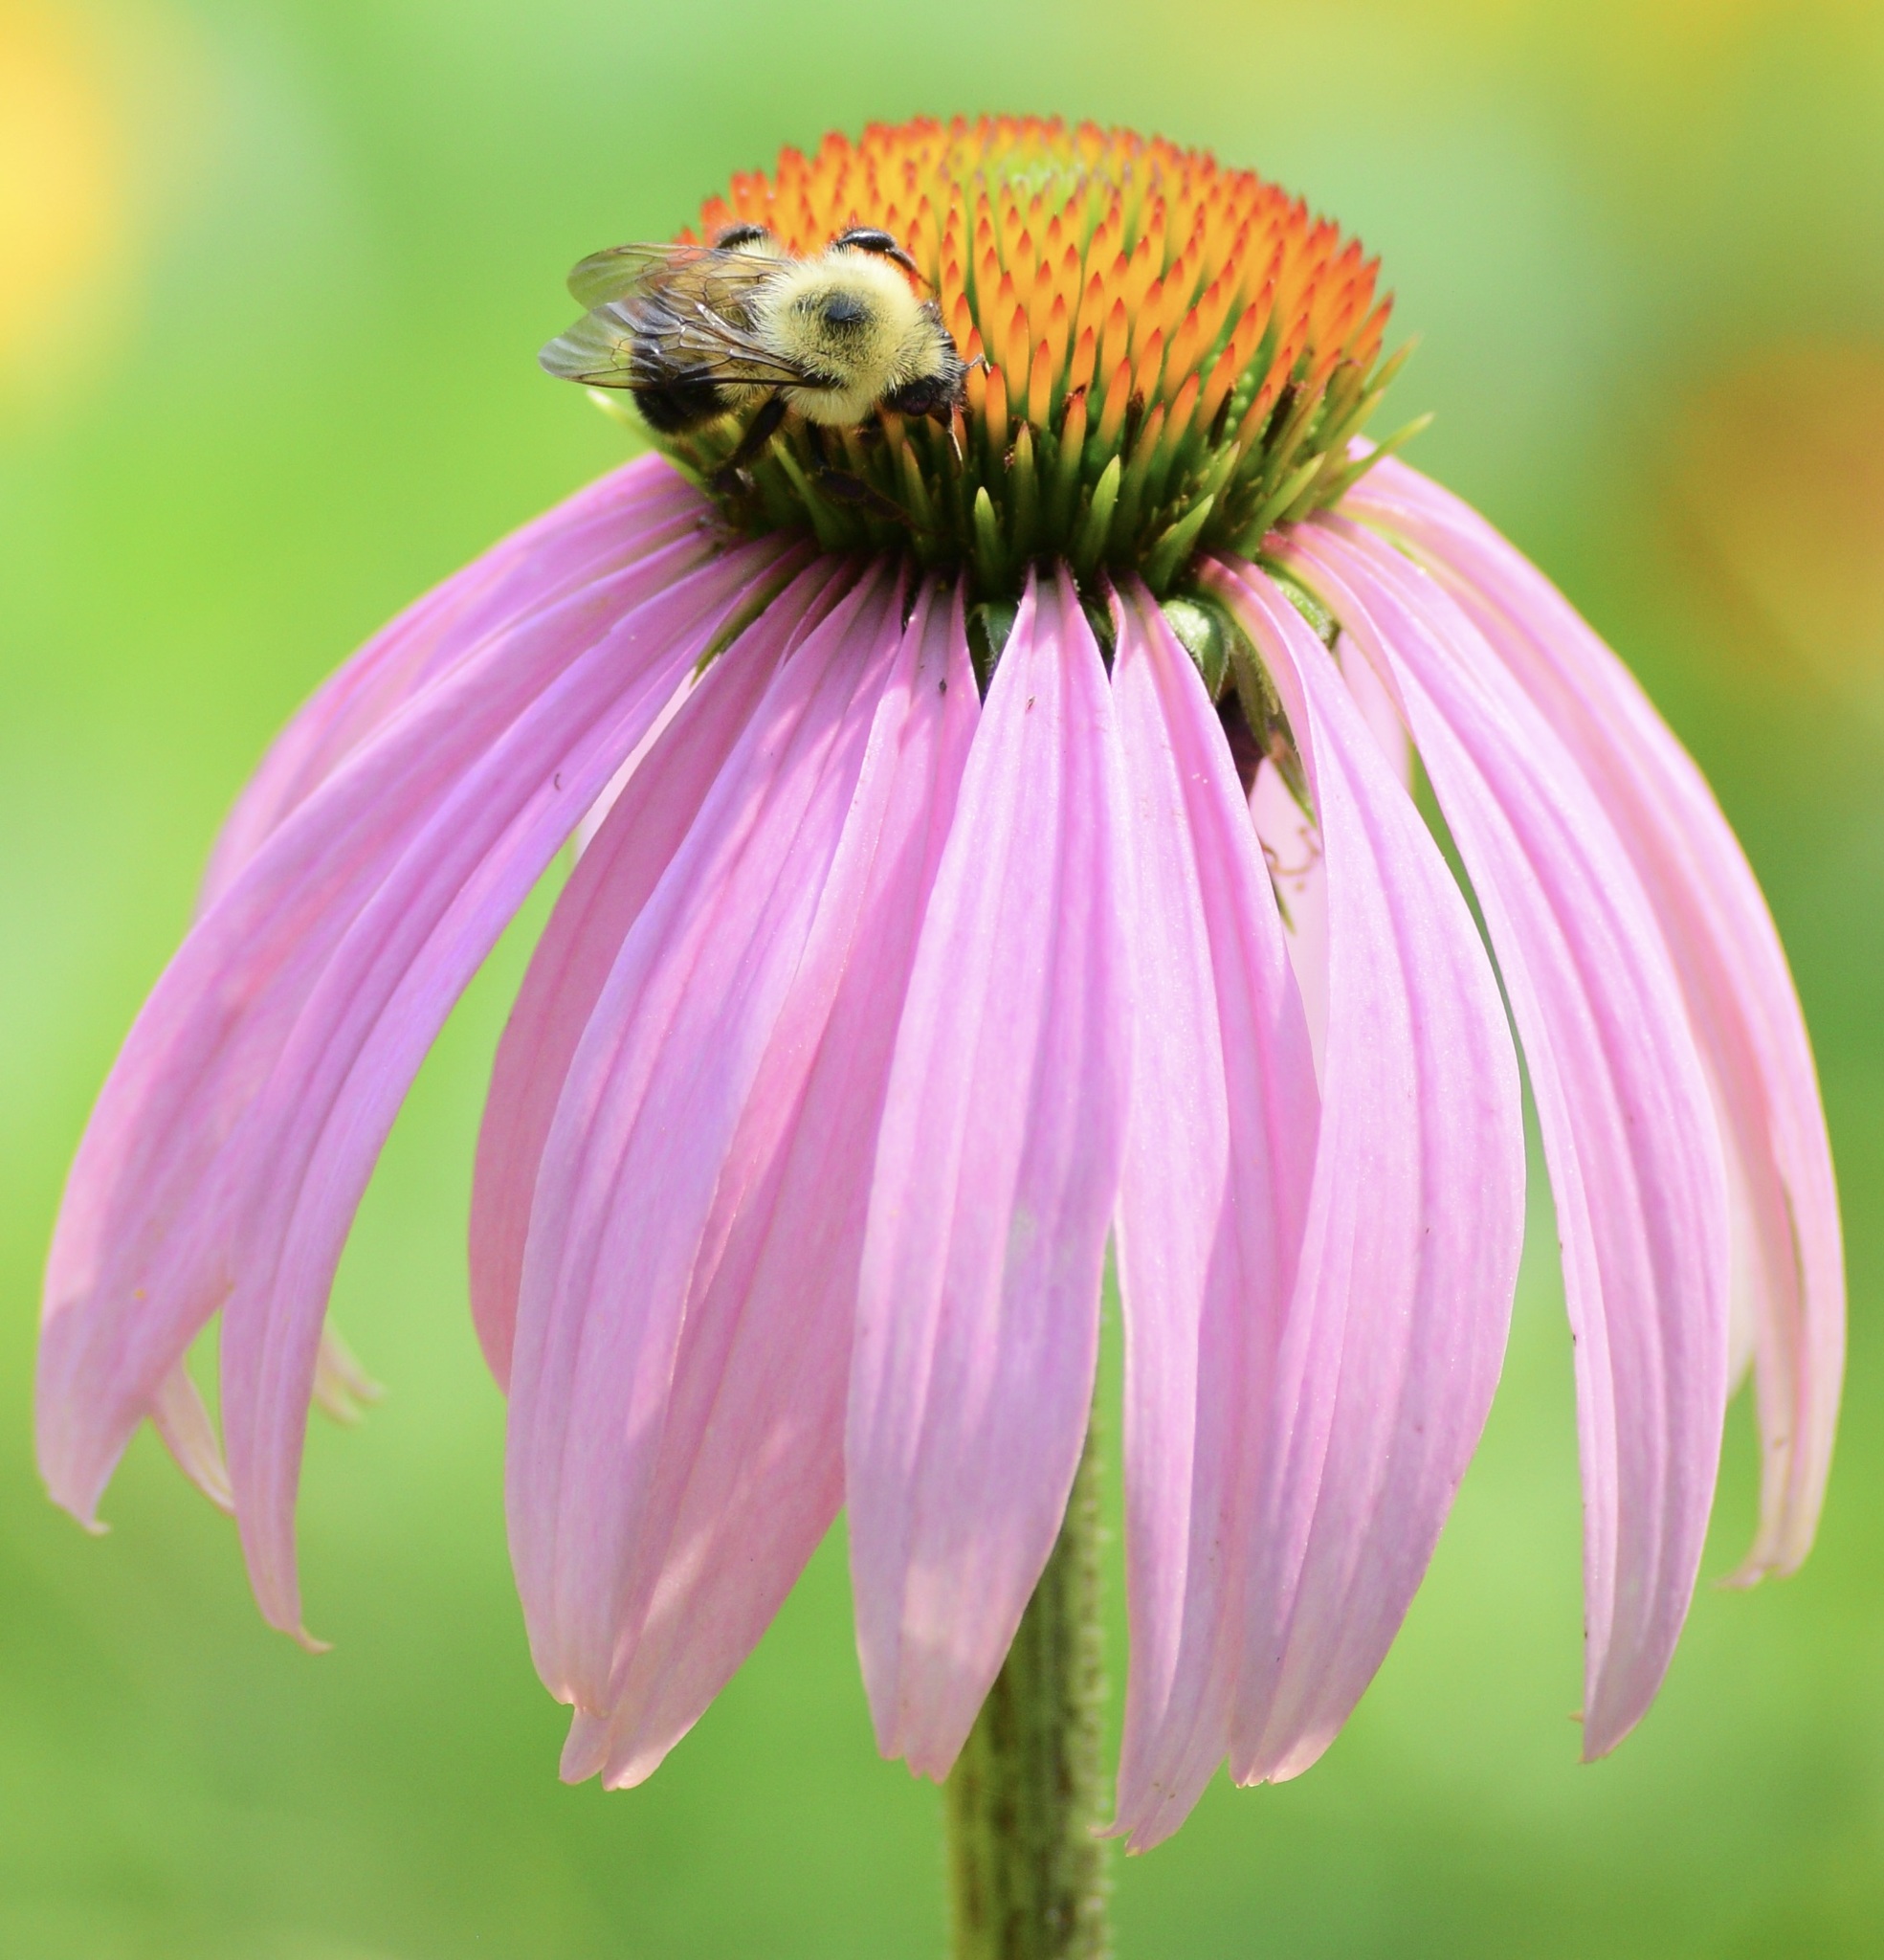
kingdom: Animalia
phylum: Arthropoda
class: Insecta
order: Hymenoptera
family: Apidae
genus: Bombus
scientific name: Bombus bimaculatus
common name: Two-spotted bumble bee
